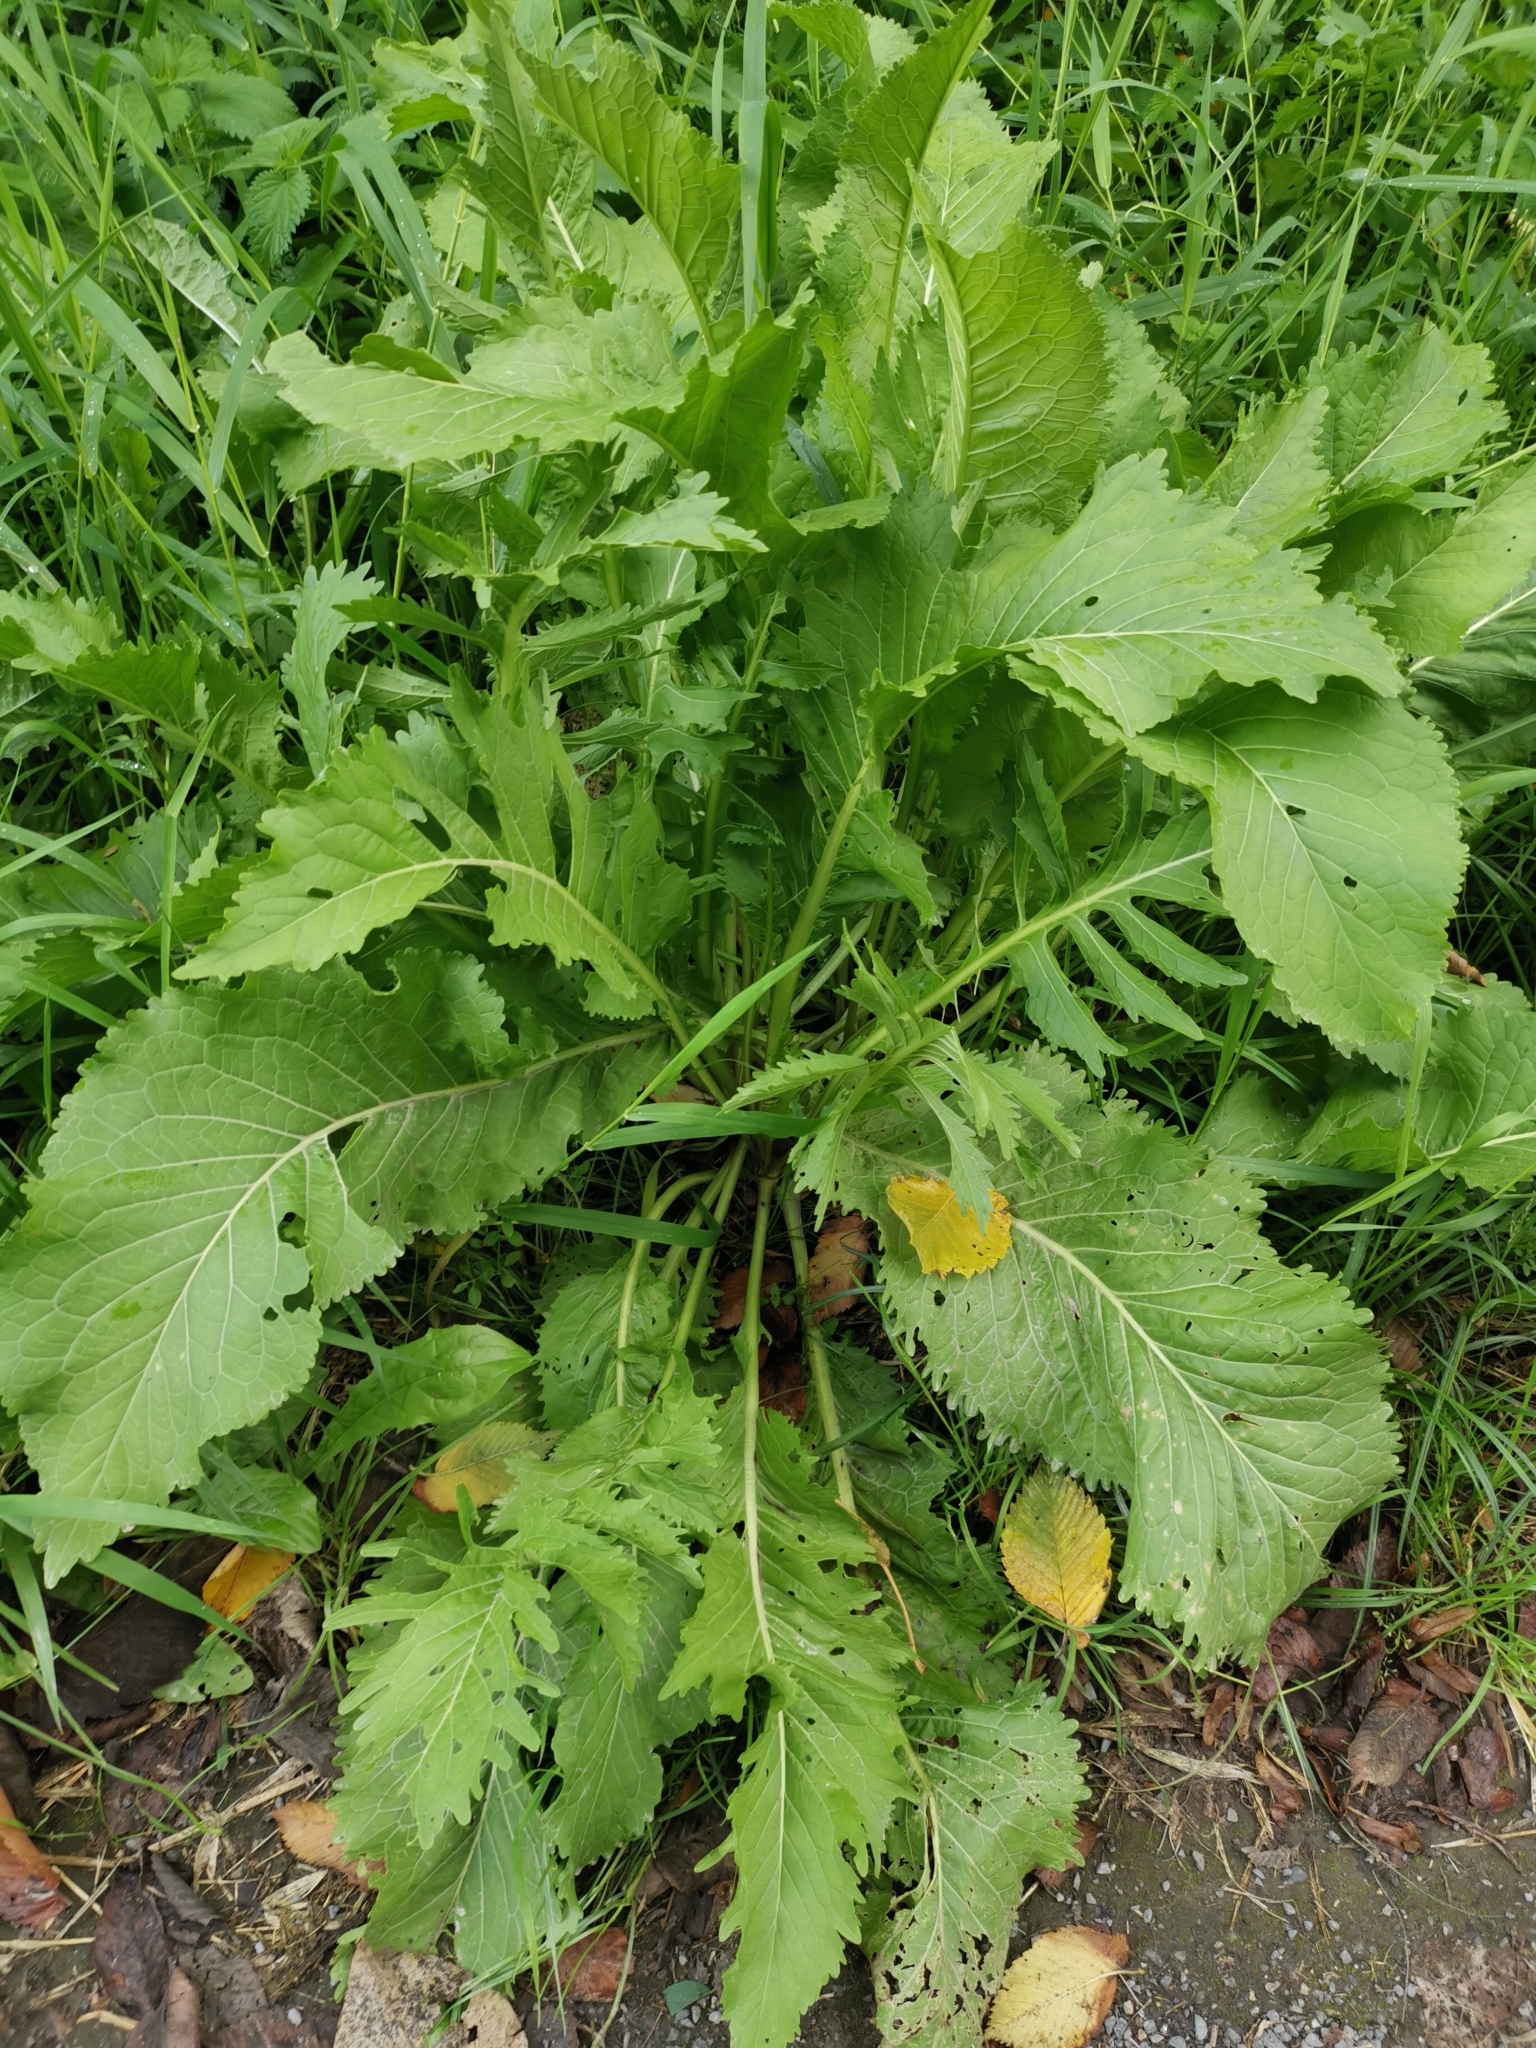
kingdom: Plantae
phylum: Tracheophyta
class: Magnoliopsida
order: Brassicales
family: Brassicaceae
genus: Armoracia
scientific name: Armoracia rusticana
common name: Horseradish
